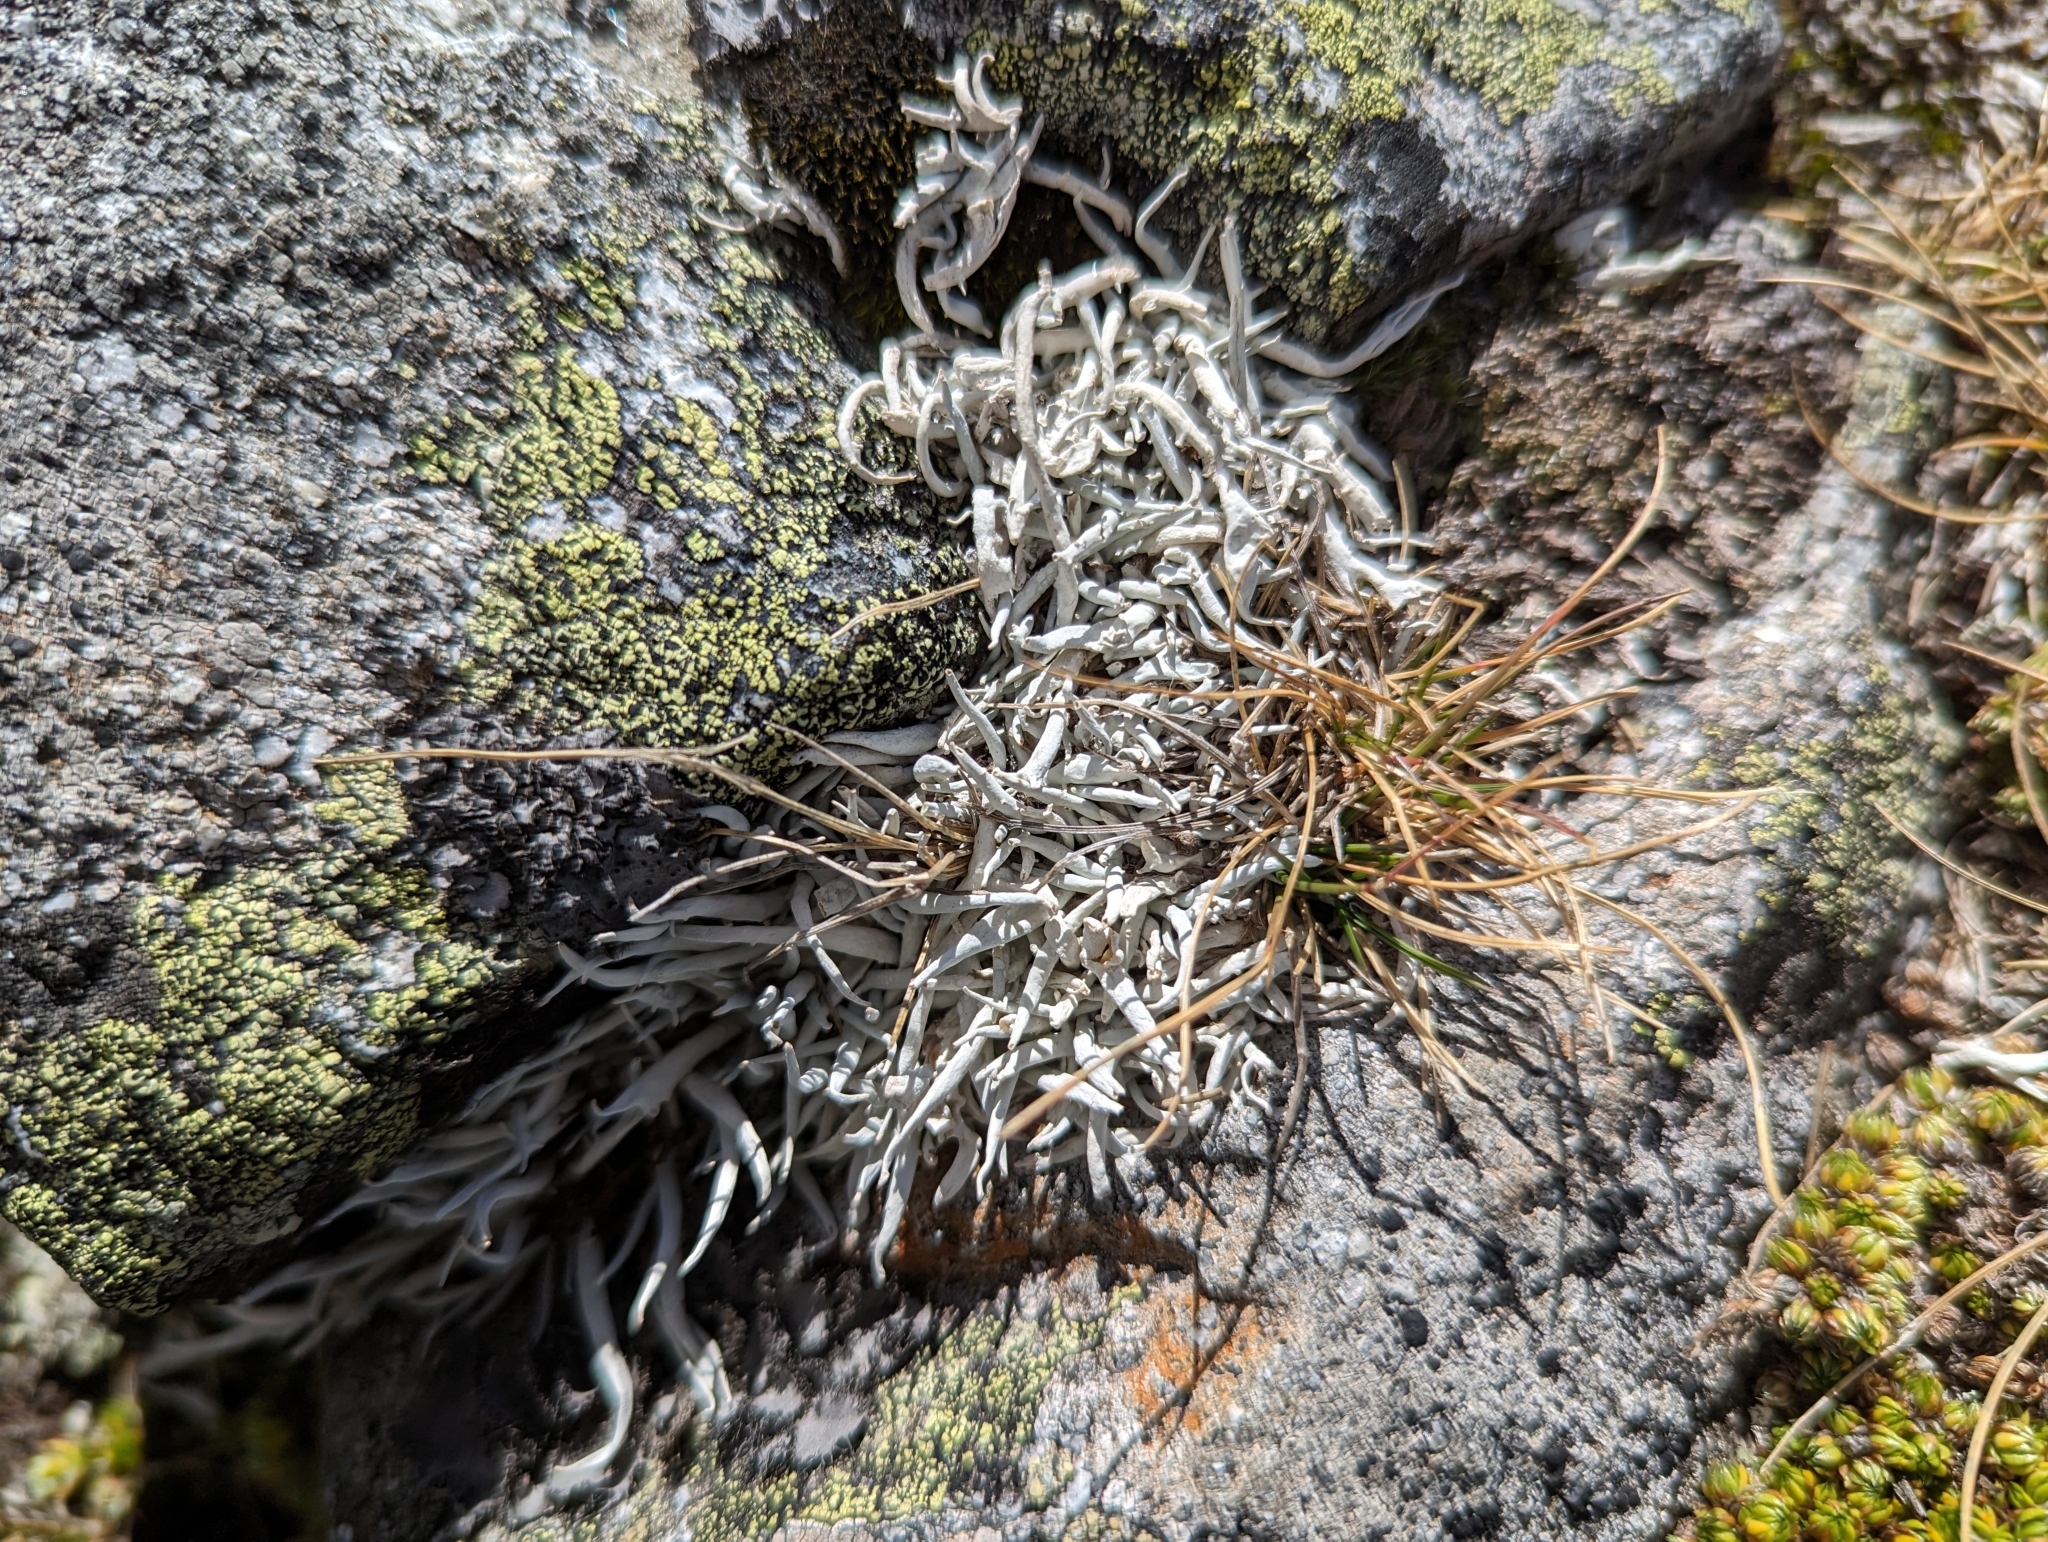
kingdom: Fungi
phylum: Ascomycota
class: Lecanoromycetes
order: Pertusariales
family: Icmadophilaceae
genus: Thamnolia
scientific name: Thamnolia vermicularis
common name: Whiteworm lichen
